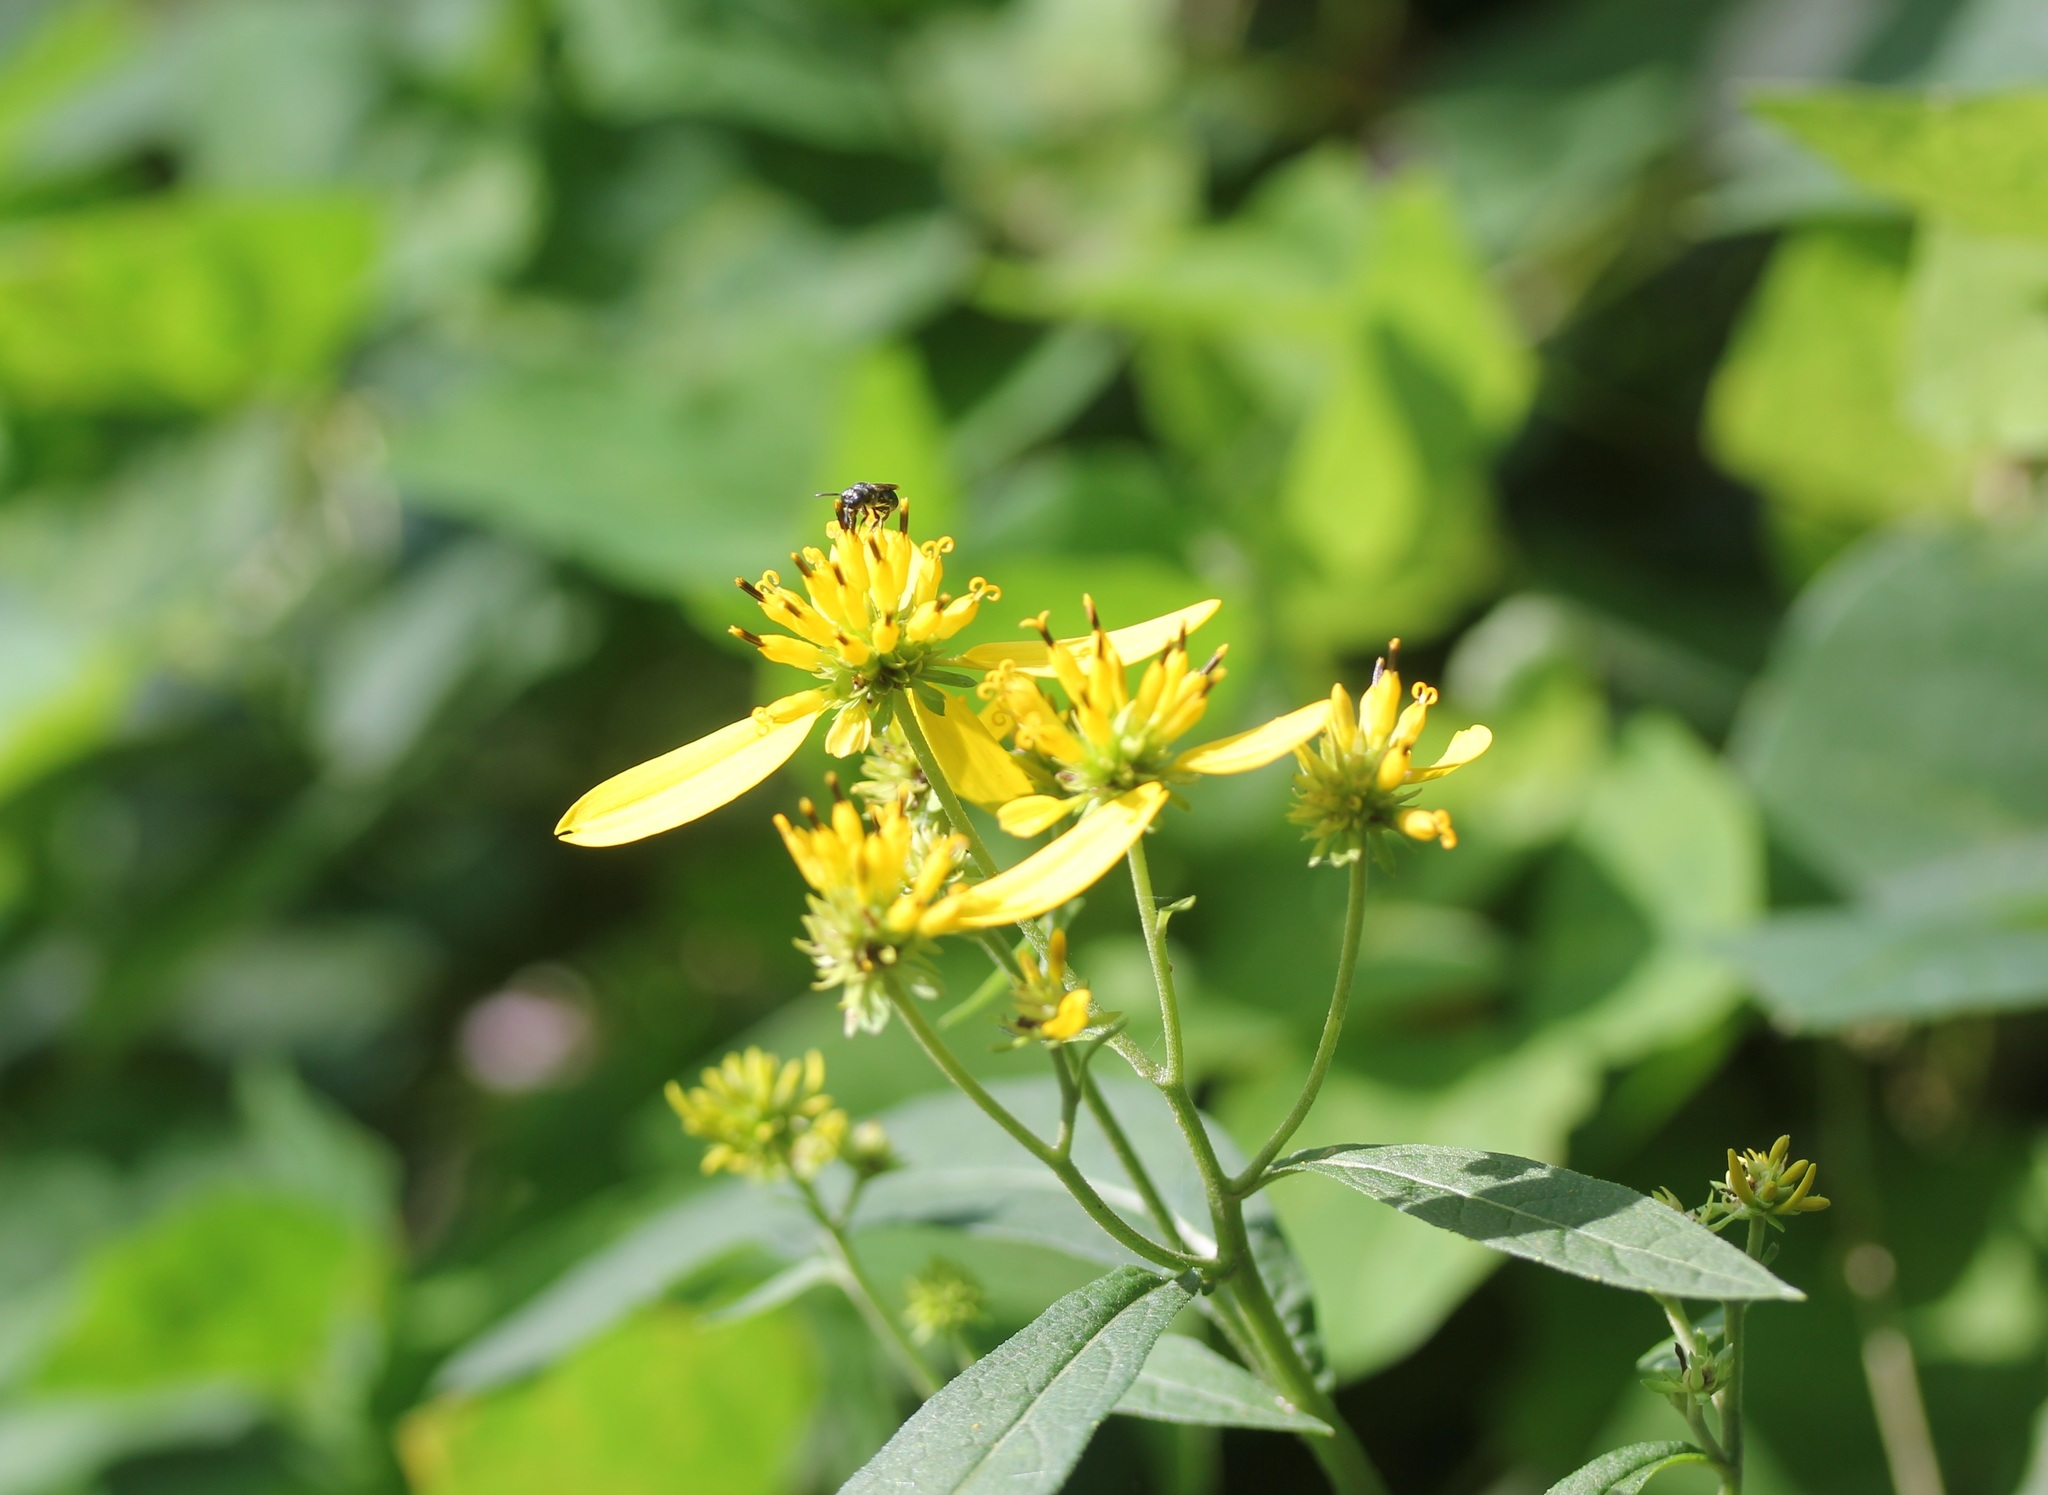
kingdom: Plantae
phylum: Tracheophyta
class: Magnoliopsida
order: Asterales
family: Asteraceae
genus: Verbesina
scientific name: Verbesina alternifolia
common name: Wingstem
